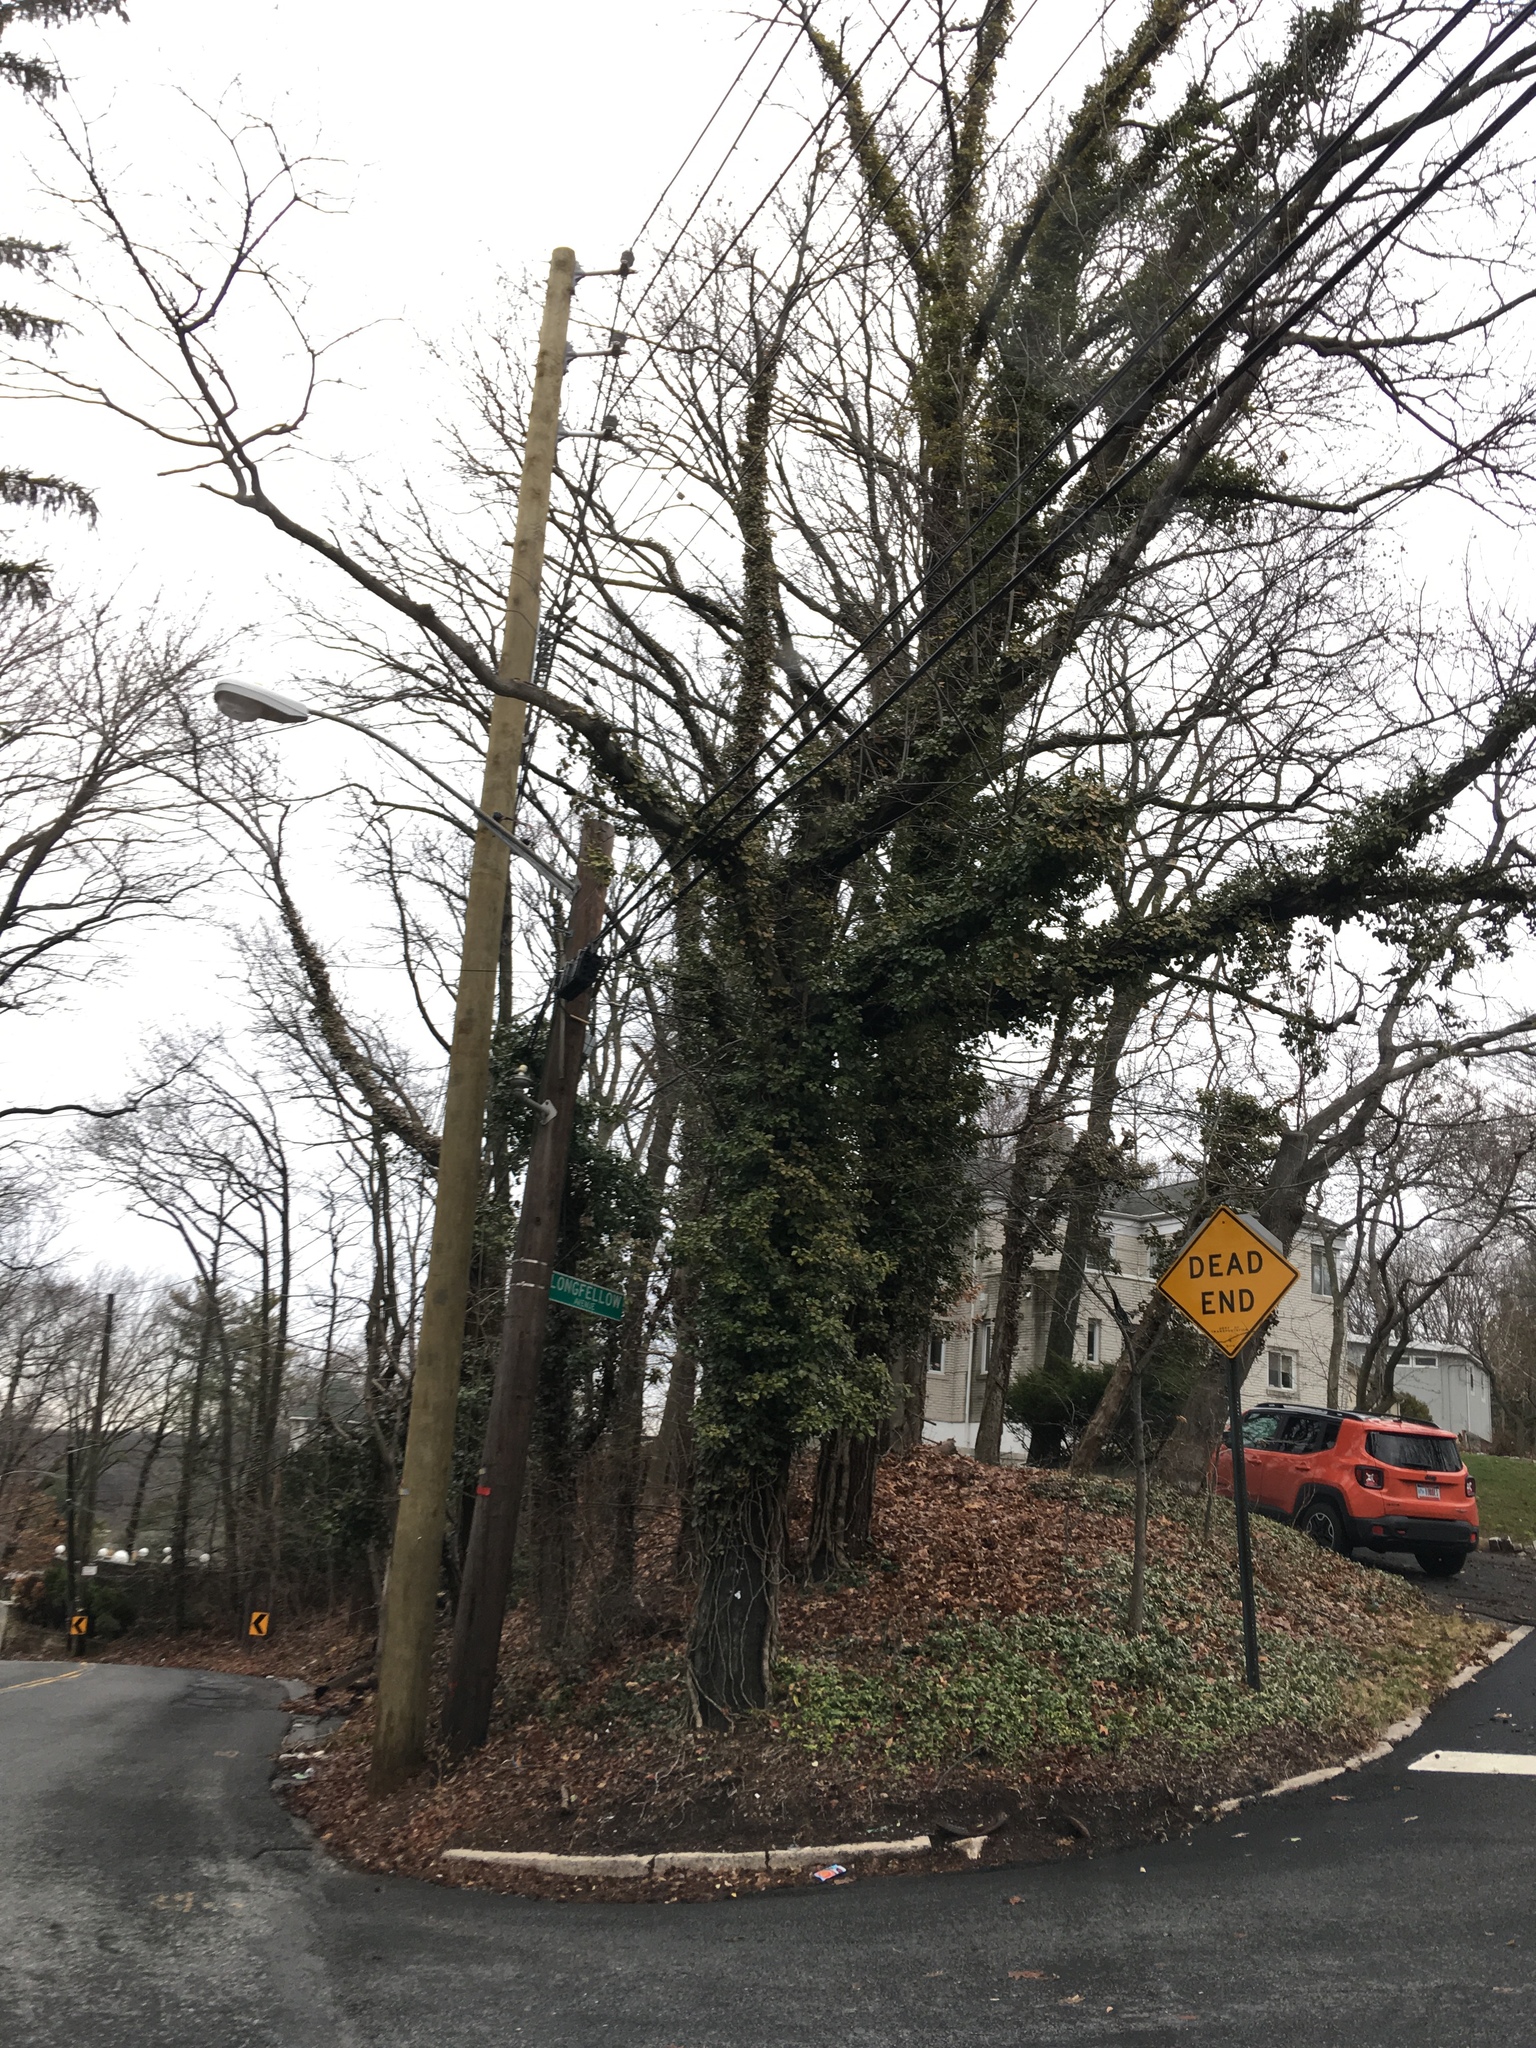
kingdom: Plantae
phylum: Tracheophyta
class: Magnoliopsida
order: Apiales
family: Araliaceae
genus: Hedera
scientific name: Hedera helix
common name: Ivy
